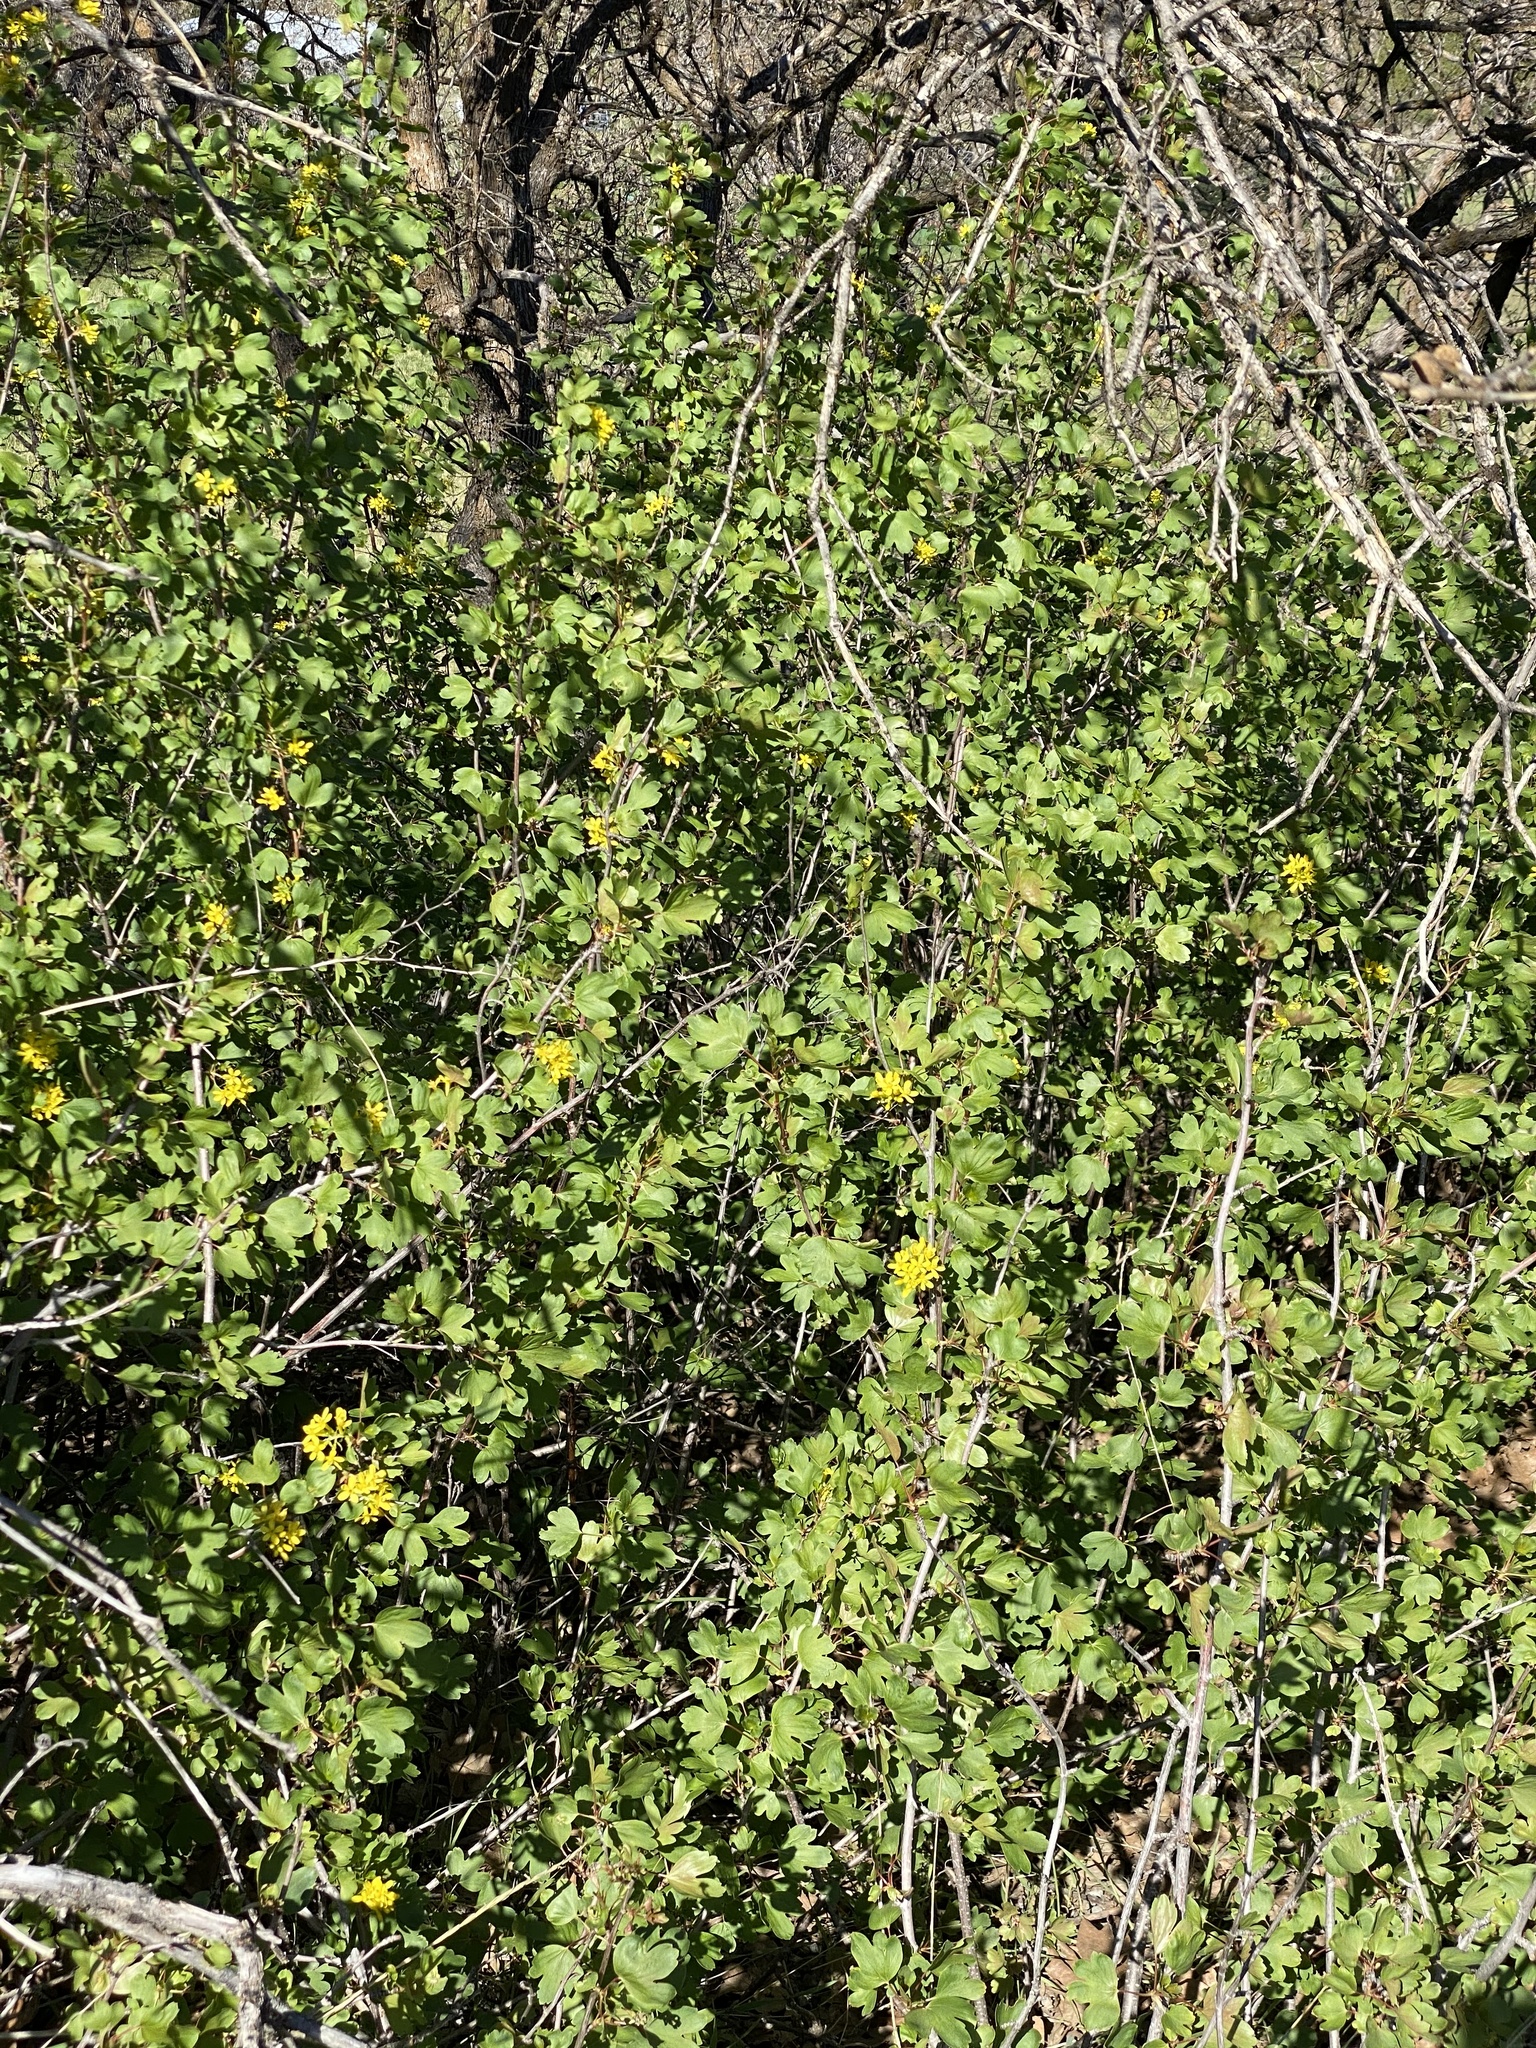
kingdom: Plantae
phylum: Tracheophyta
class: Magnoliopsida
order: Saxifragales
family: Grossulariaceae
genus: Ribes
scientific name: Ribes aureum
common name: Golden currant
